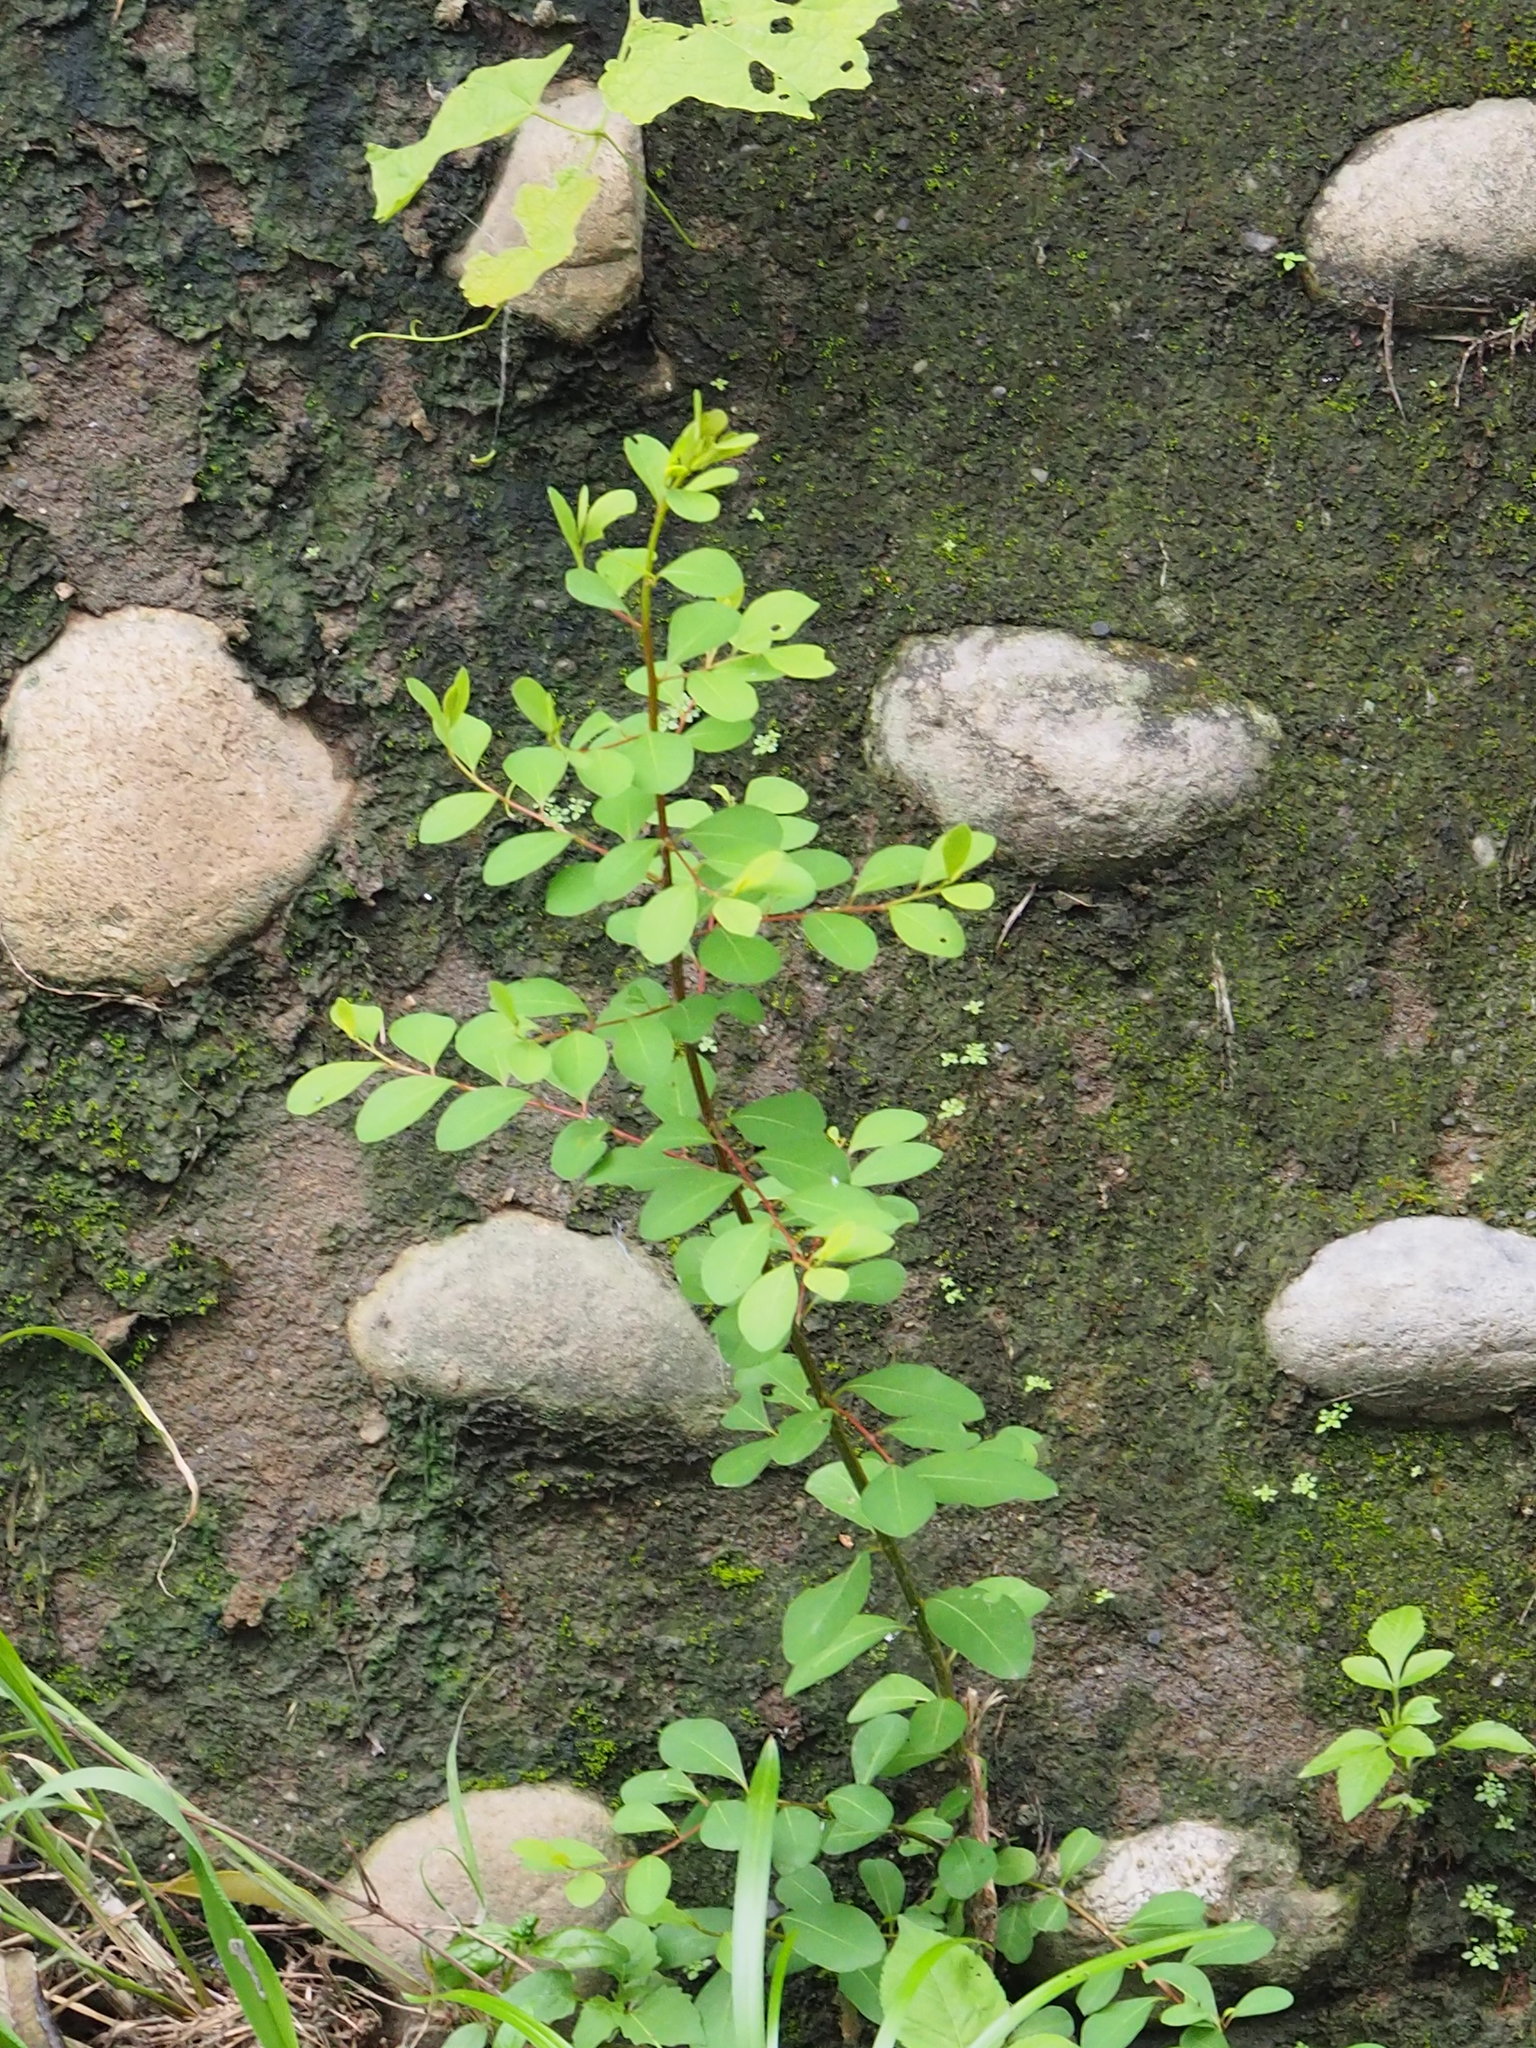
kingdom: Plantae
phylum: Tracheophyta
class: Magnoliopsida
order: Malpighiales
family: Phyllanthaceae
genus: Flueggea
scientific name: Flueggea virosa
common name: Common bushweed
